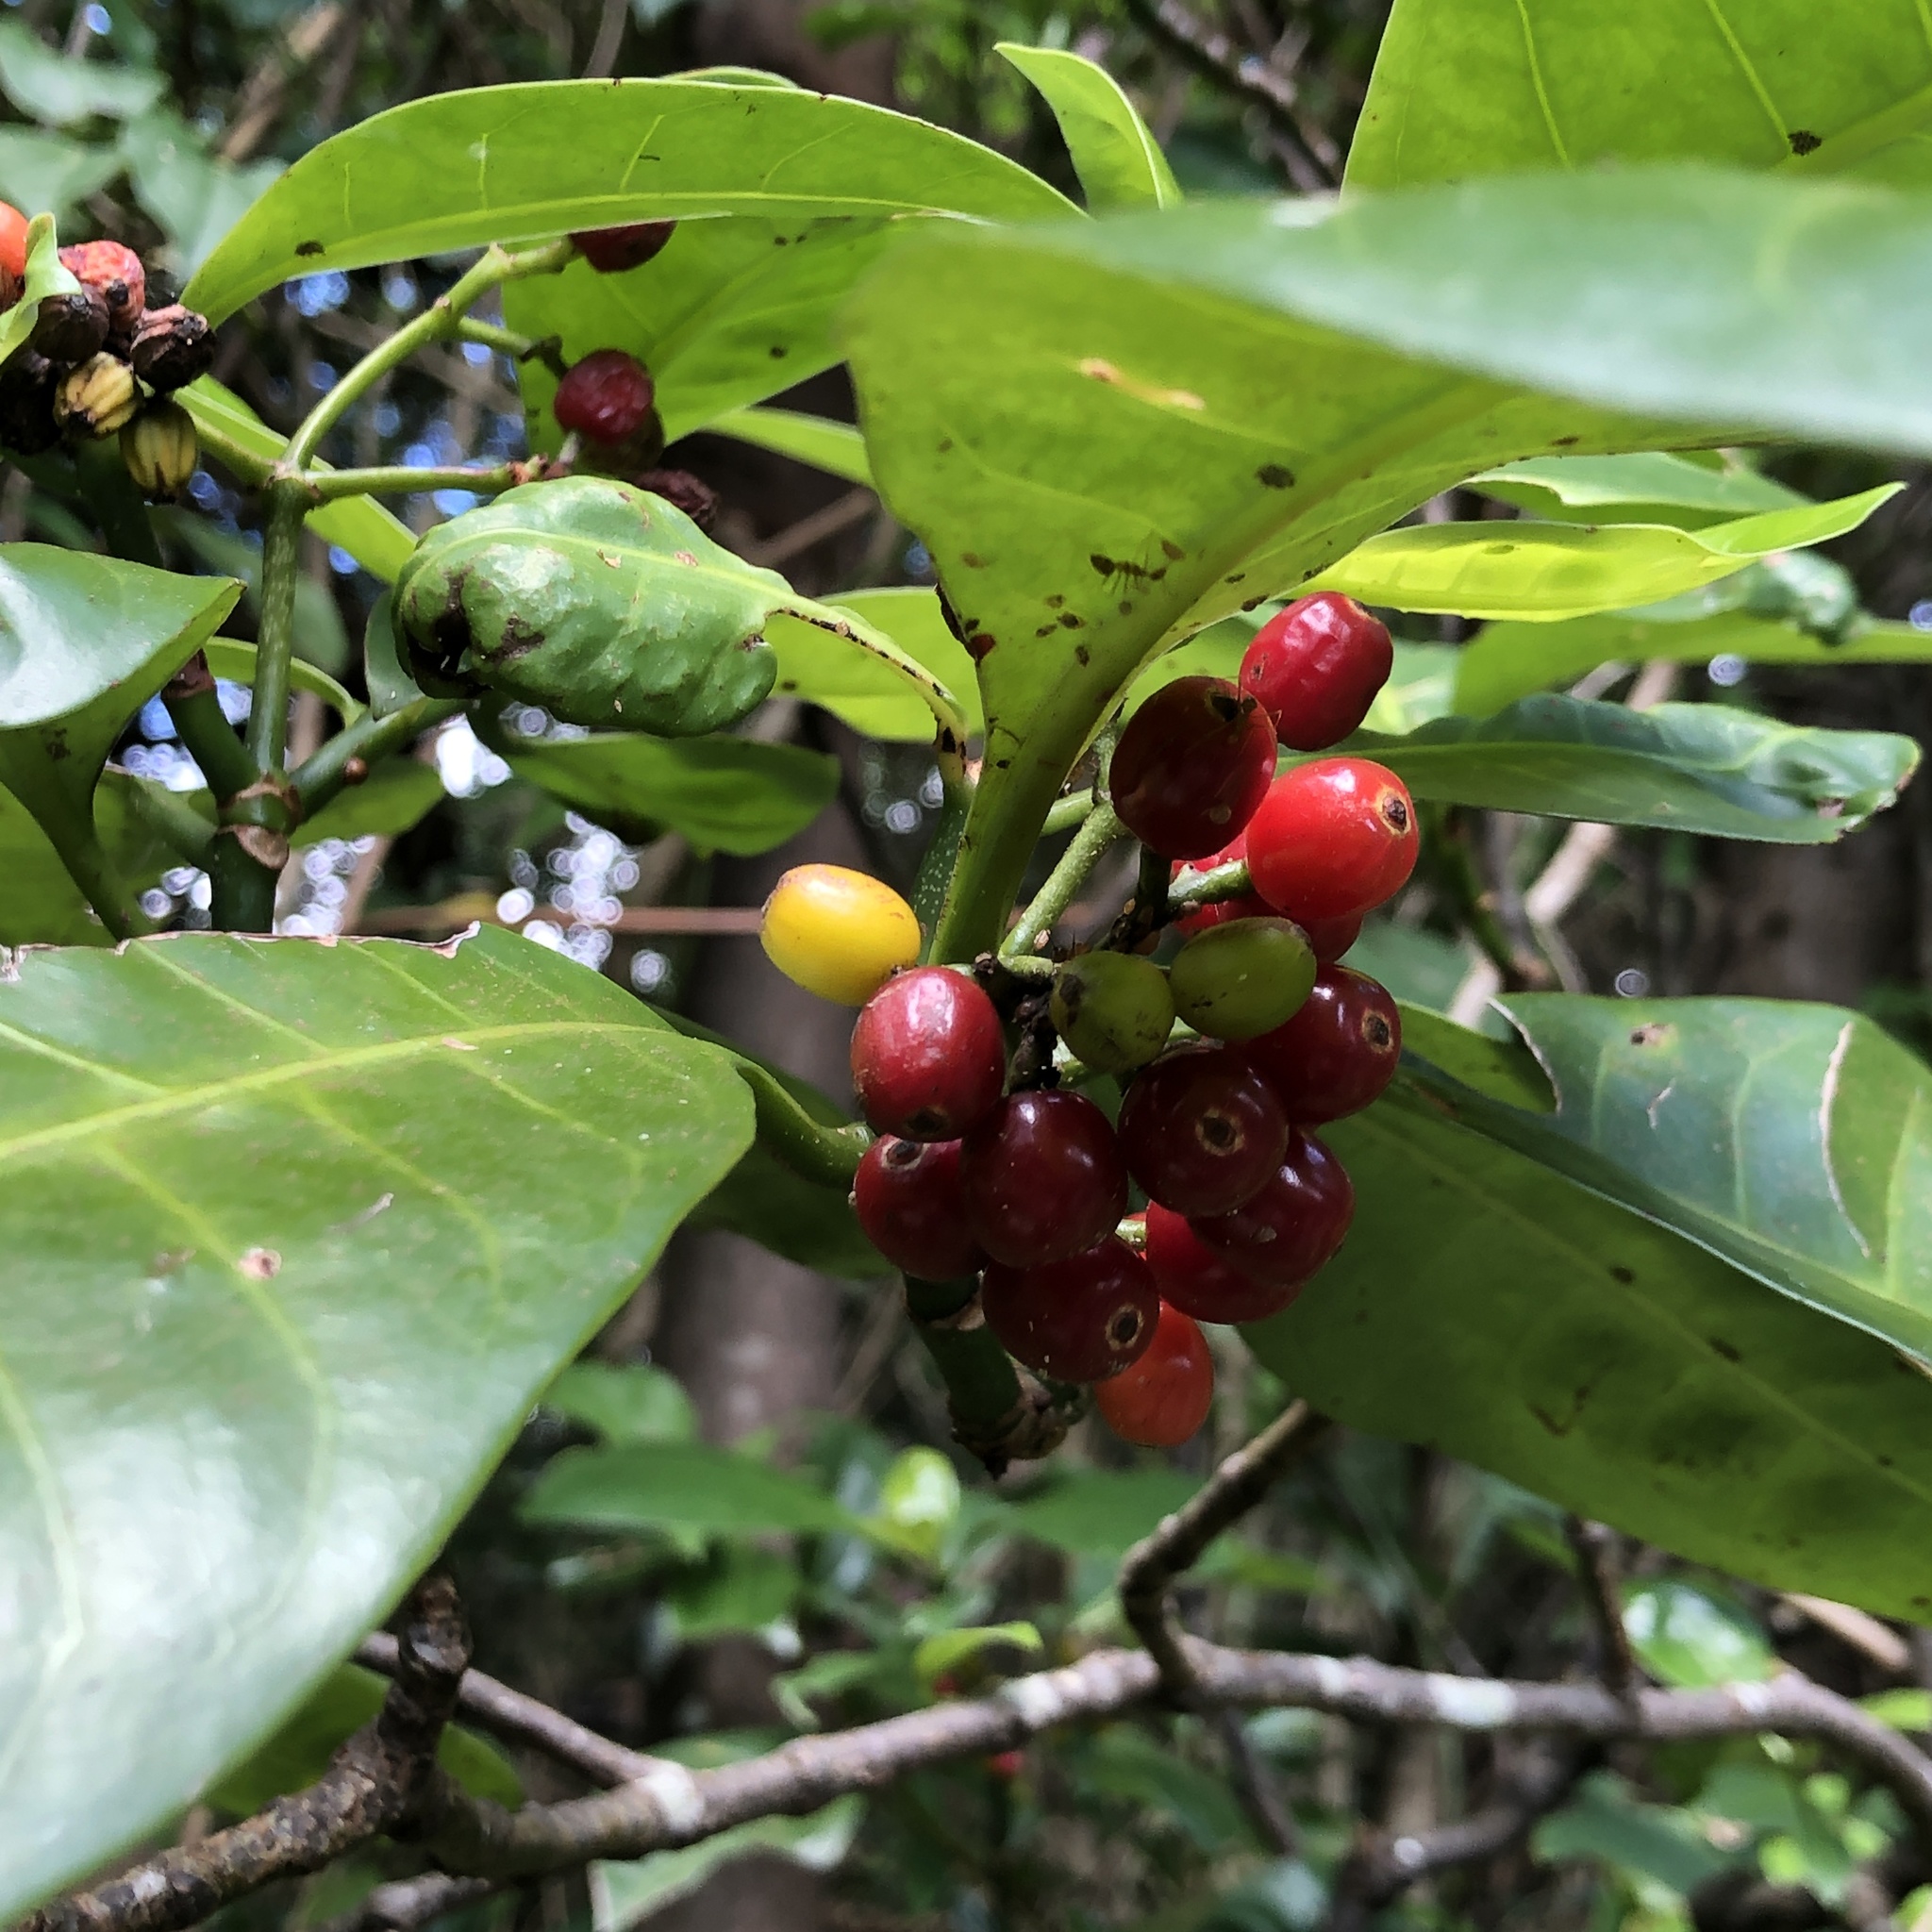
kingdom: Plantae
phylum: Tracheophyta
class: Magnoliopsida
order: Gentianales
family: Rubiaceae
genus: Psychotria
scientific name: Psychotria manillensis
